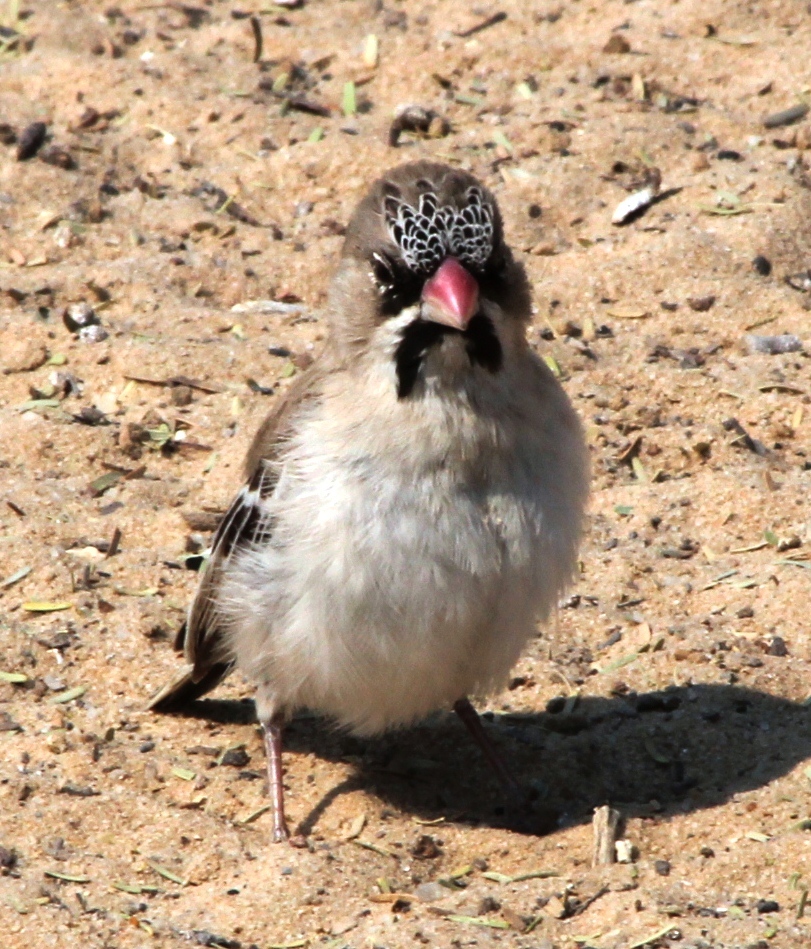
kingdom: Animalia
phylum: Chordata
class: Aves
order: Passeriformes
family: Ploceidae
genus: Sporopipes
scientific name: Sporopipes squamifrons
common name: Scaly-feathered weaver
